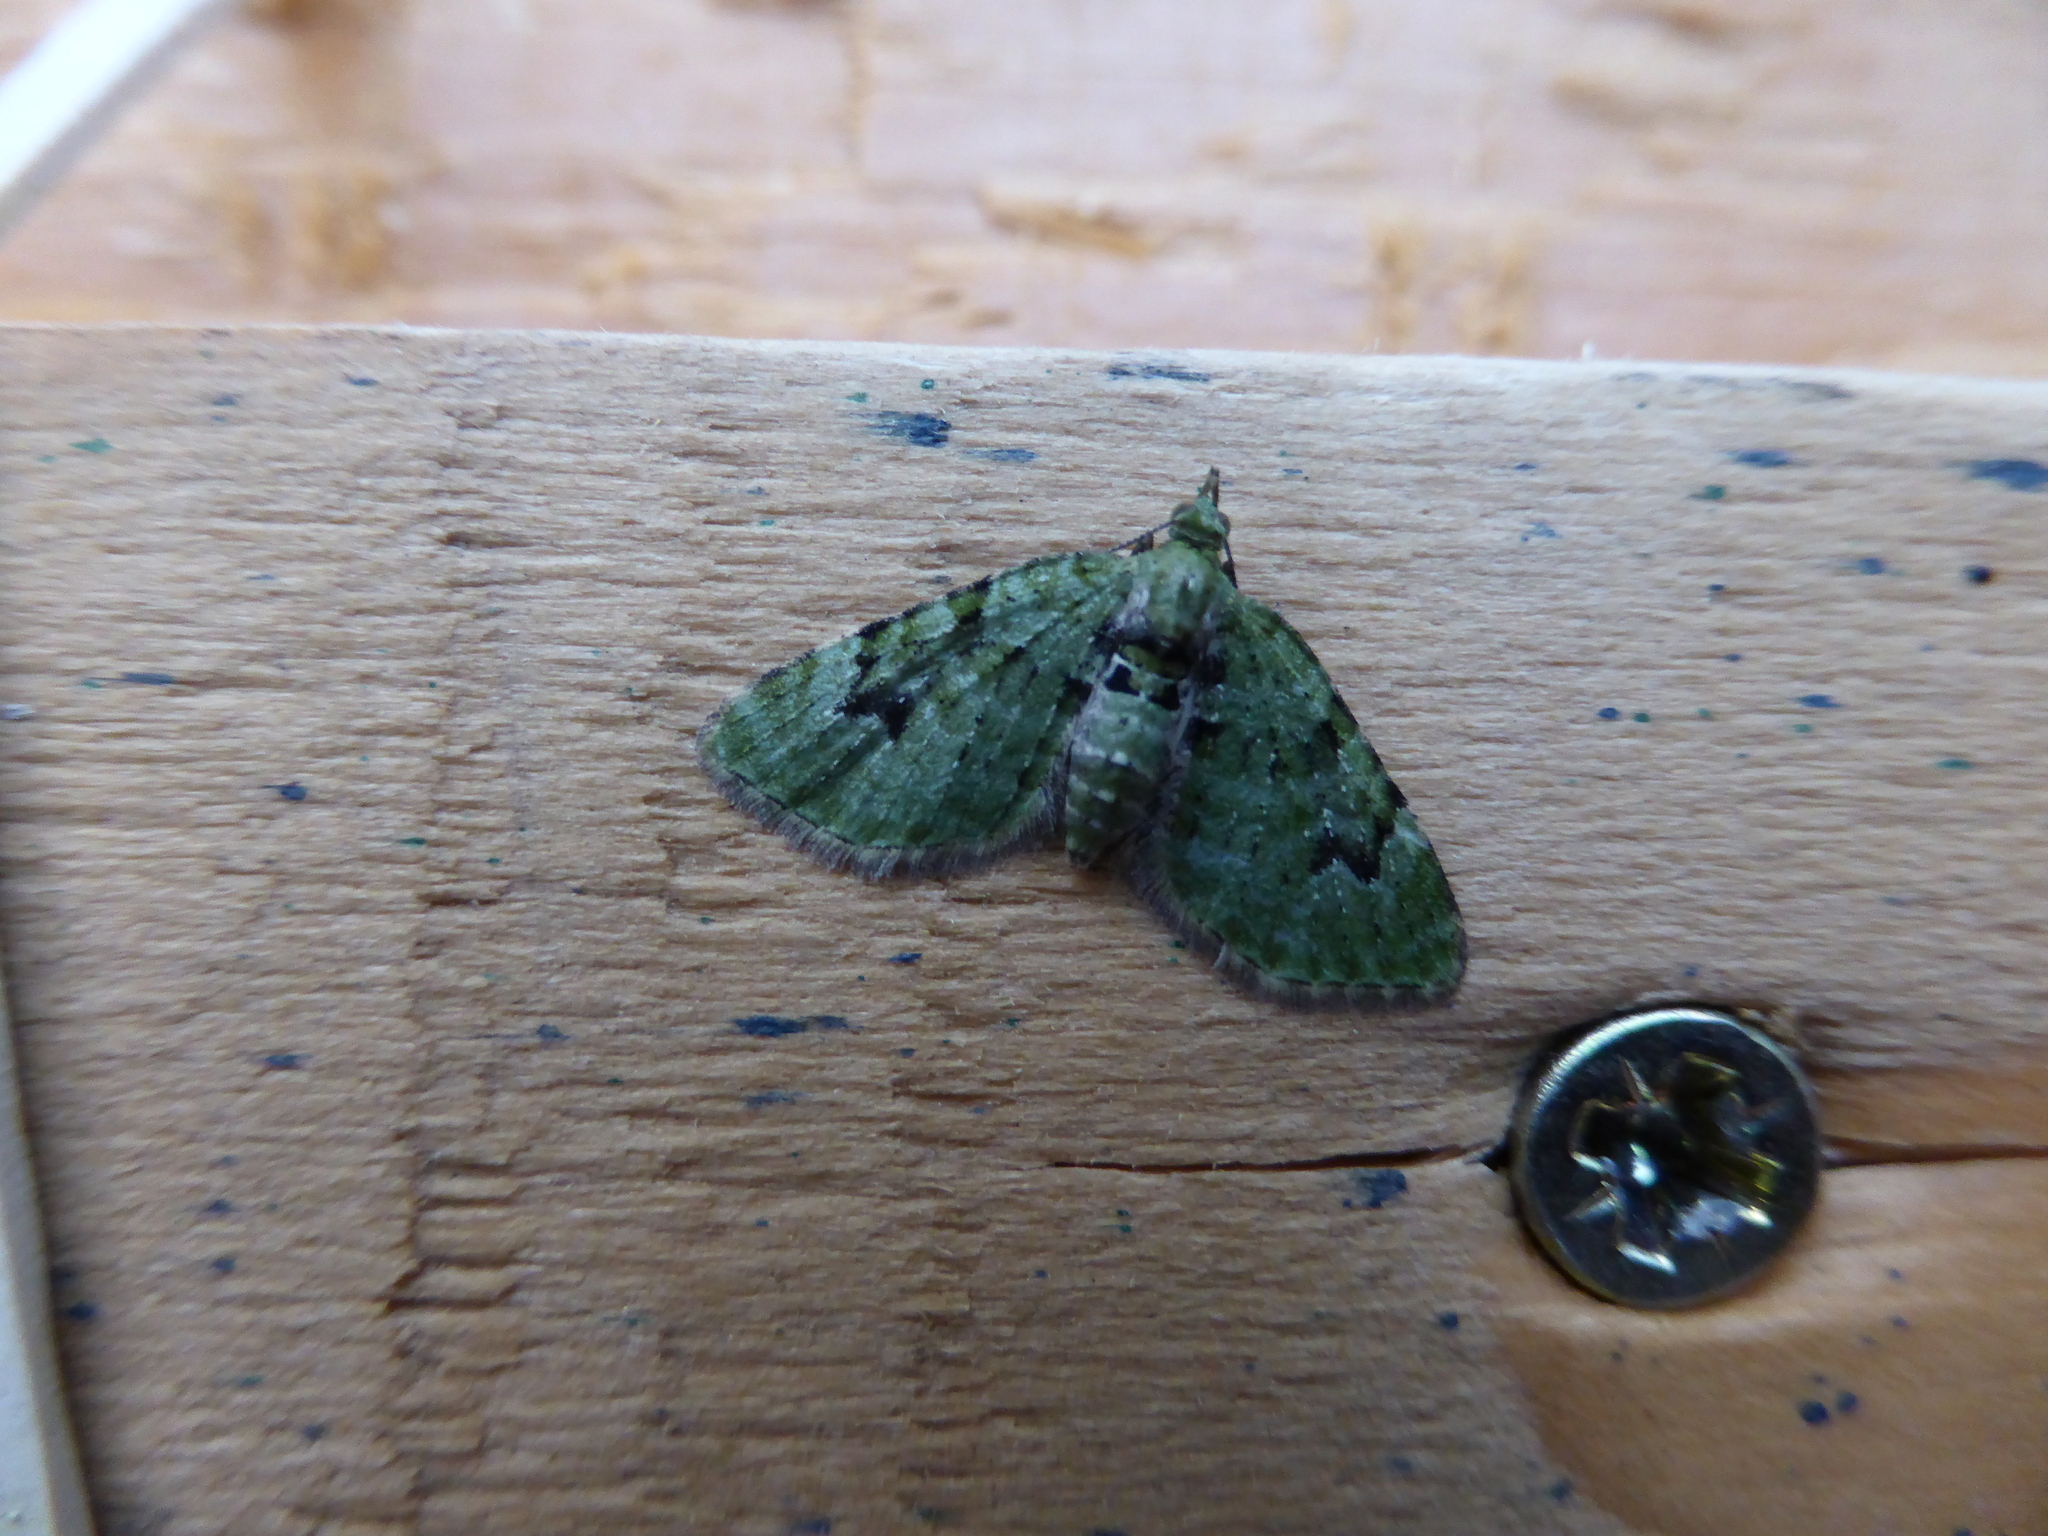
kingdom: Animalia
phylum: Arthropoda
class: Insecta
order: Lepidoptera
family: Geometridae
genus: Chloroclystis
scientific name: Chloroclystis v-ata
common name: V-pug
